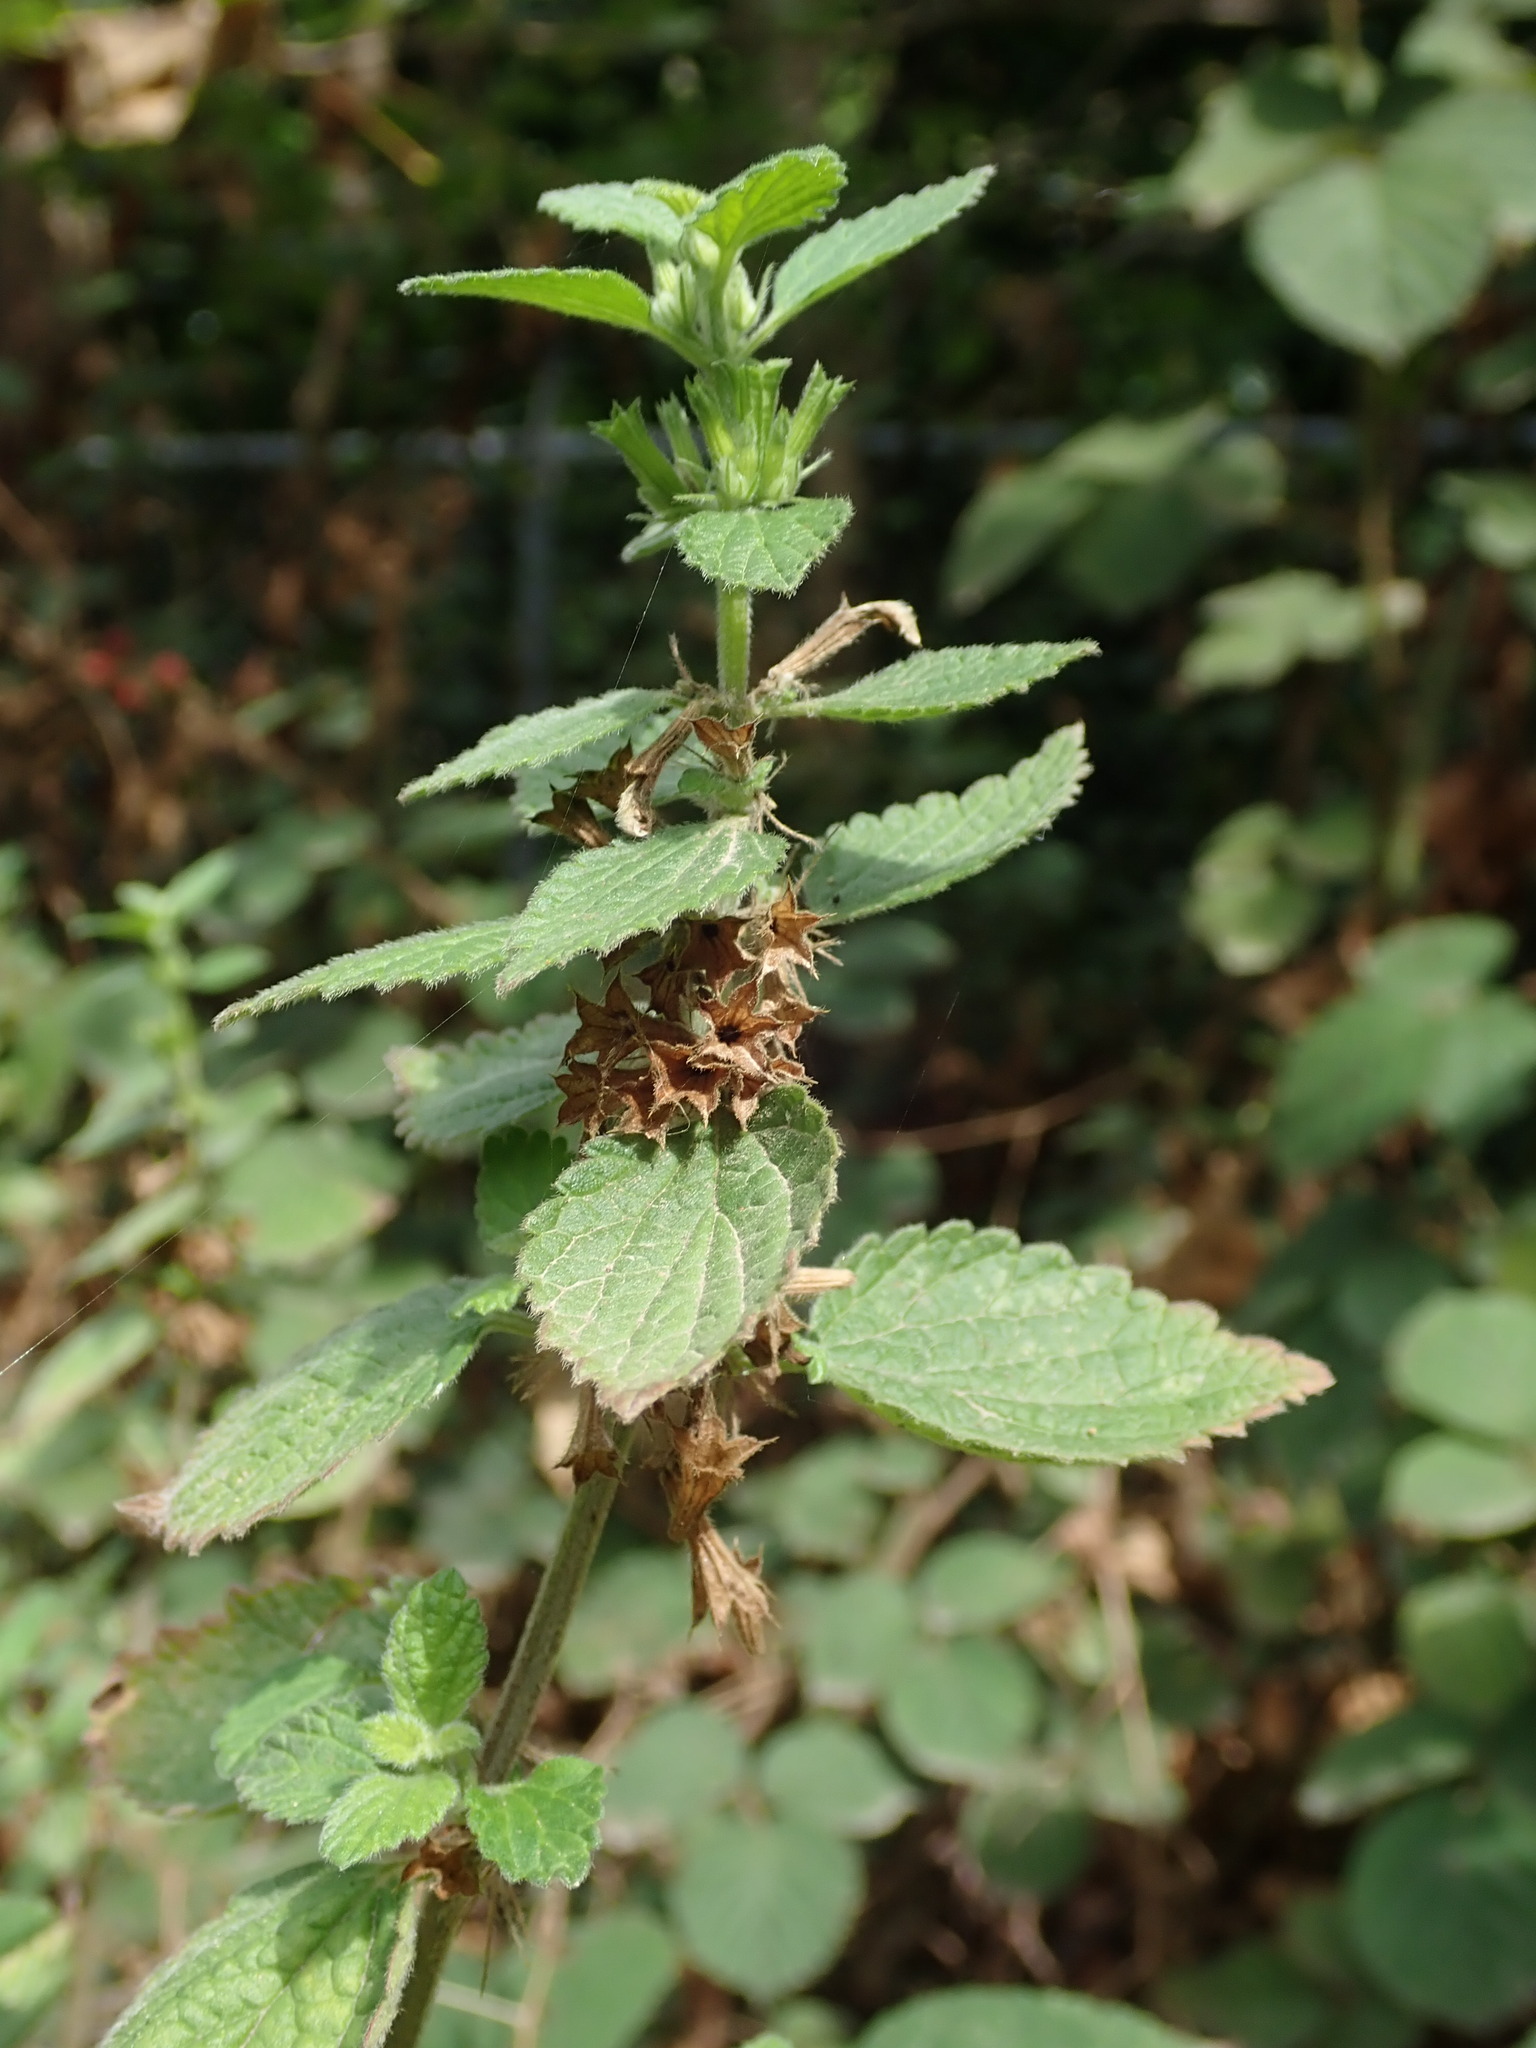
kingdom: Plantae
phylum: Tracheophyta
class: Magnoliopsida
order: Lamiales
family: Lamiaceae
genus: Ballota
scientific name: Ballota nigra
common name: Black horehound
